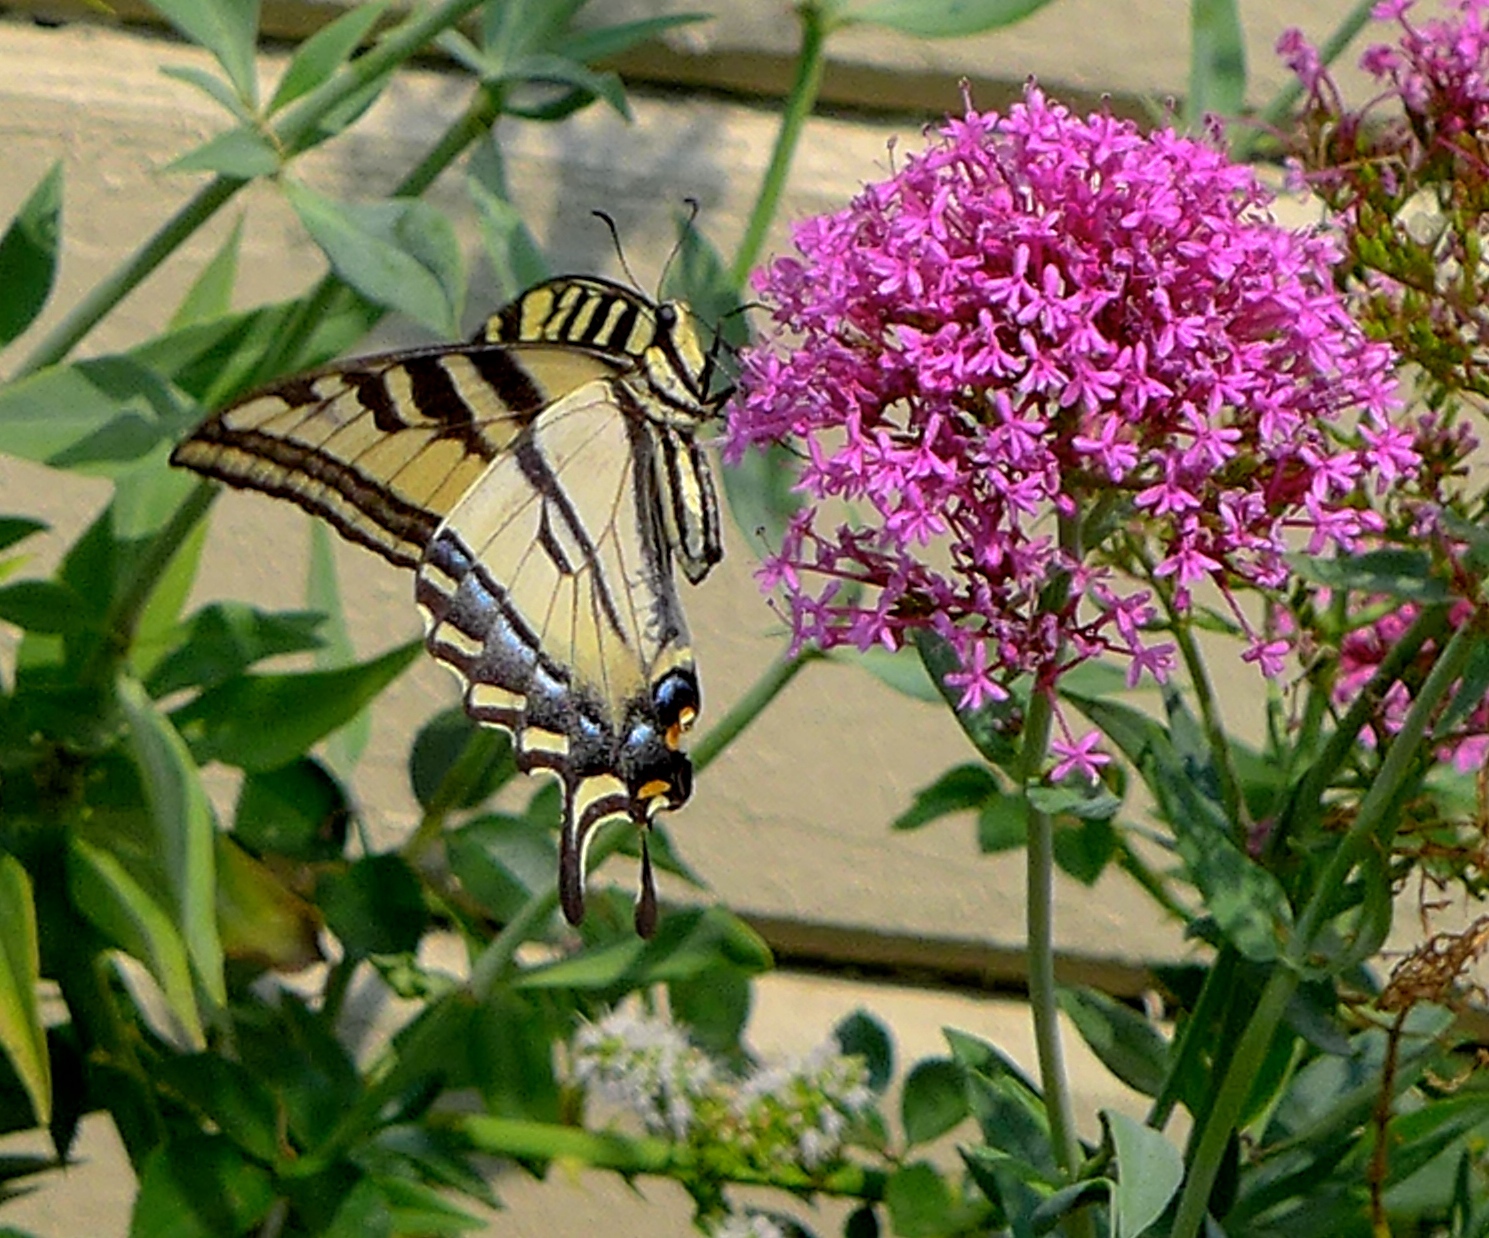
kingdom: Animalia
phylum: Arthropoda
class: Insecta
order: Lepidoptera
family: Papilionidae
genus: Papilio
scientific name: Papilio rutulus
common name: Western tiger swallowtail
